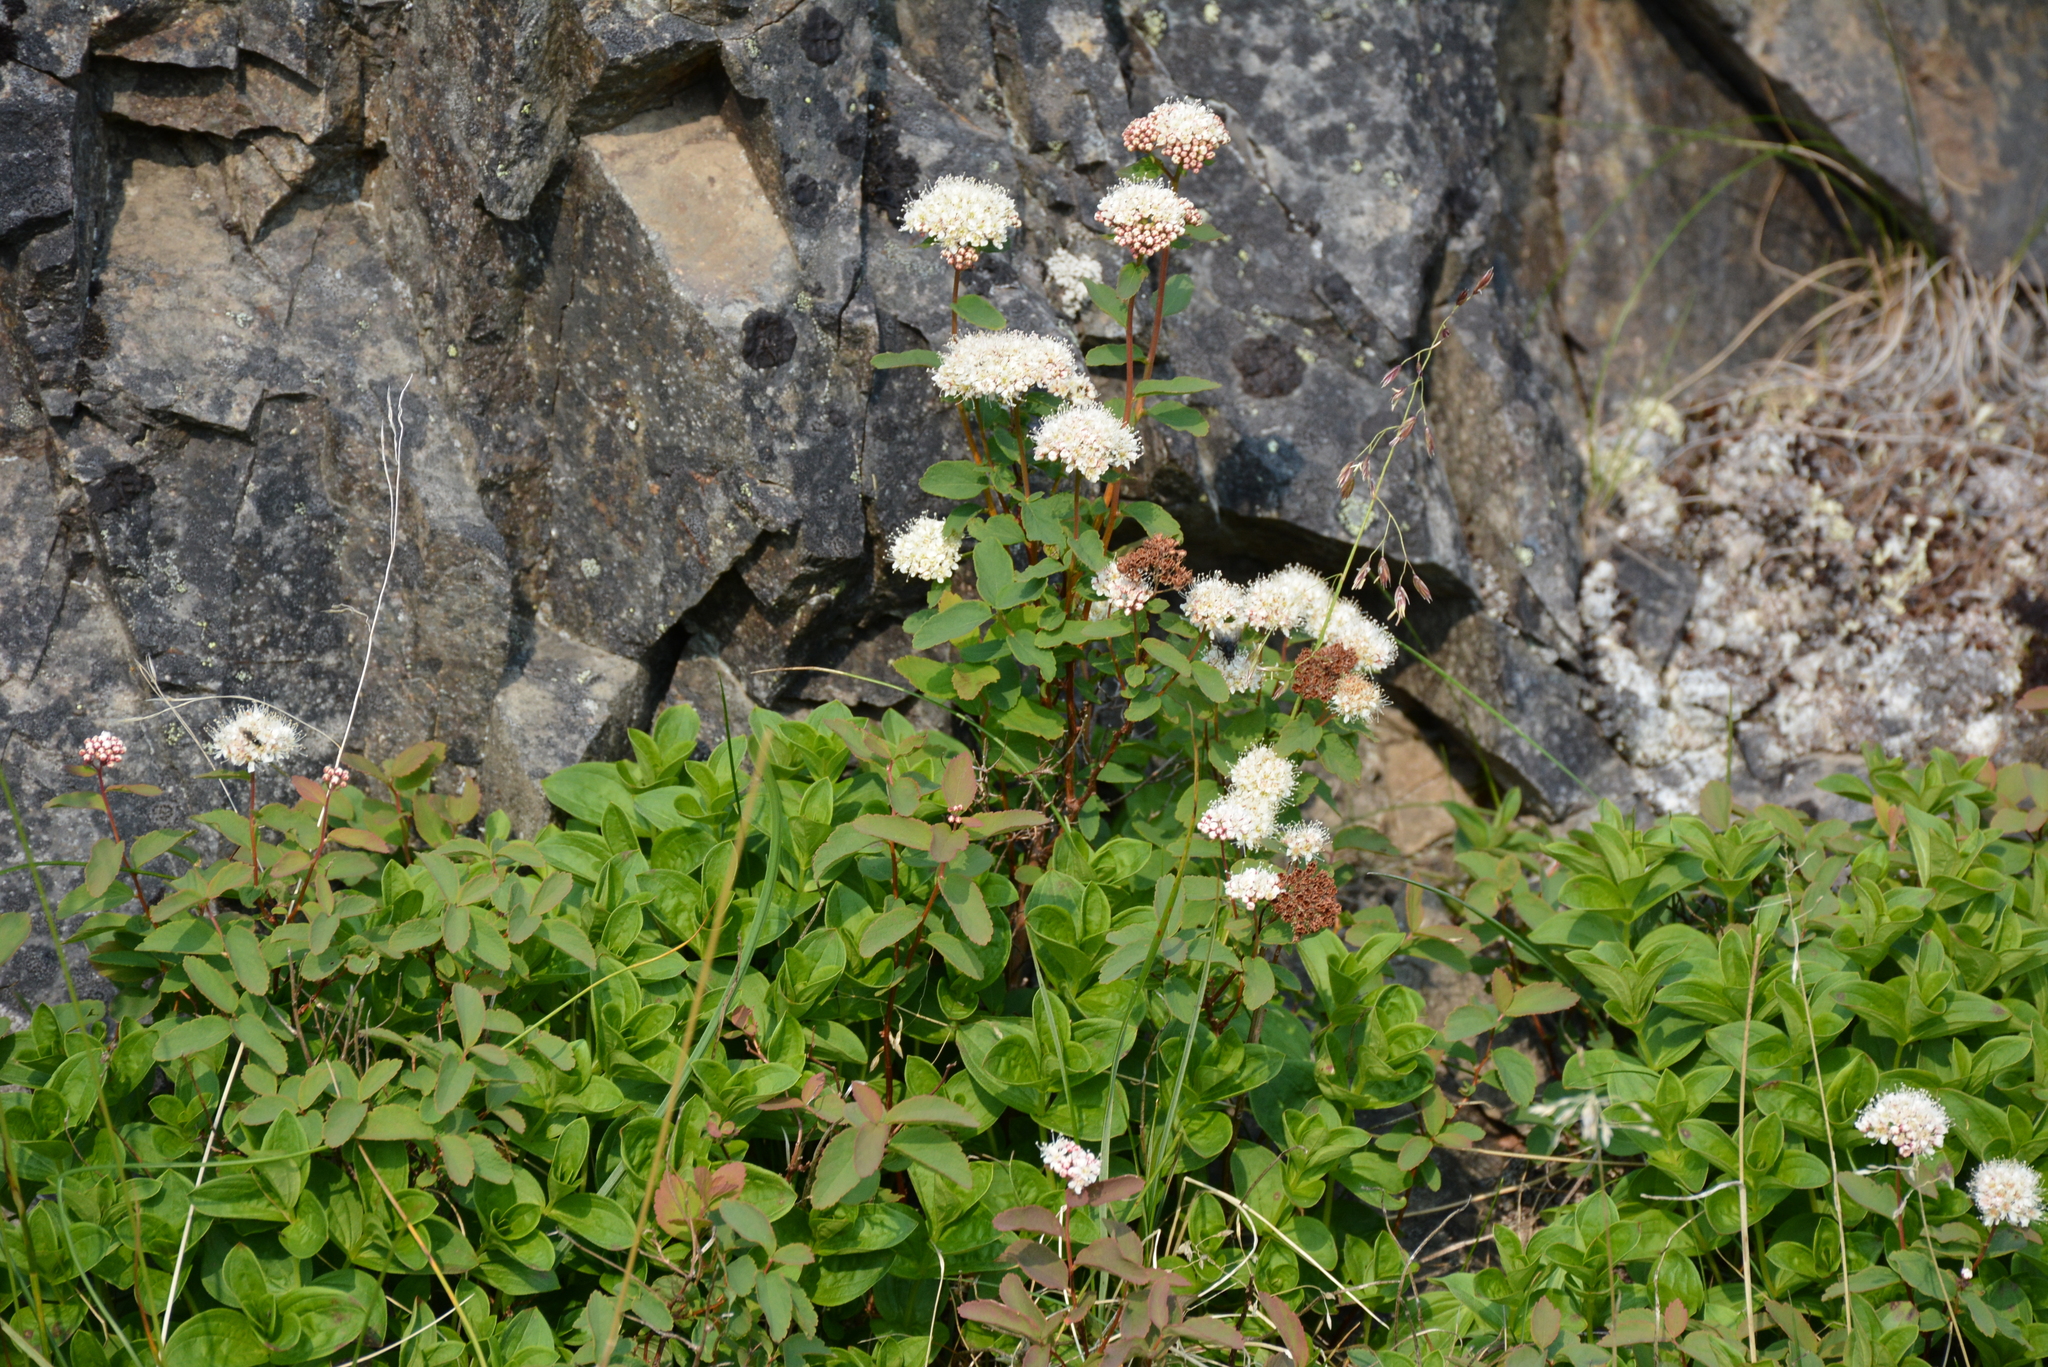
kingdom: Plantae
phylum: Tracheophyta
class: Magnoliopsida
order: Rosales
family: Rosaceae
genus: Spiraea
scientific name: Spiraea stevenii
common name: Steven's meadowsweet
